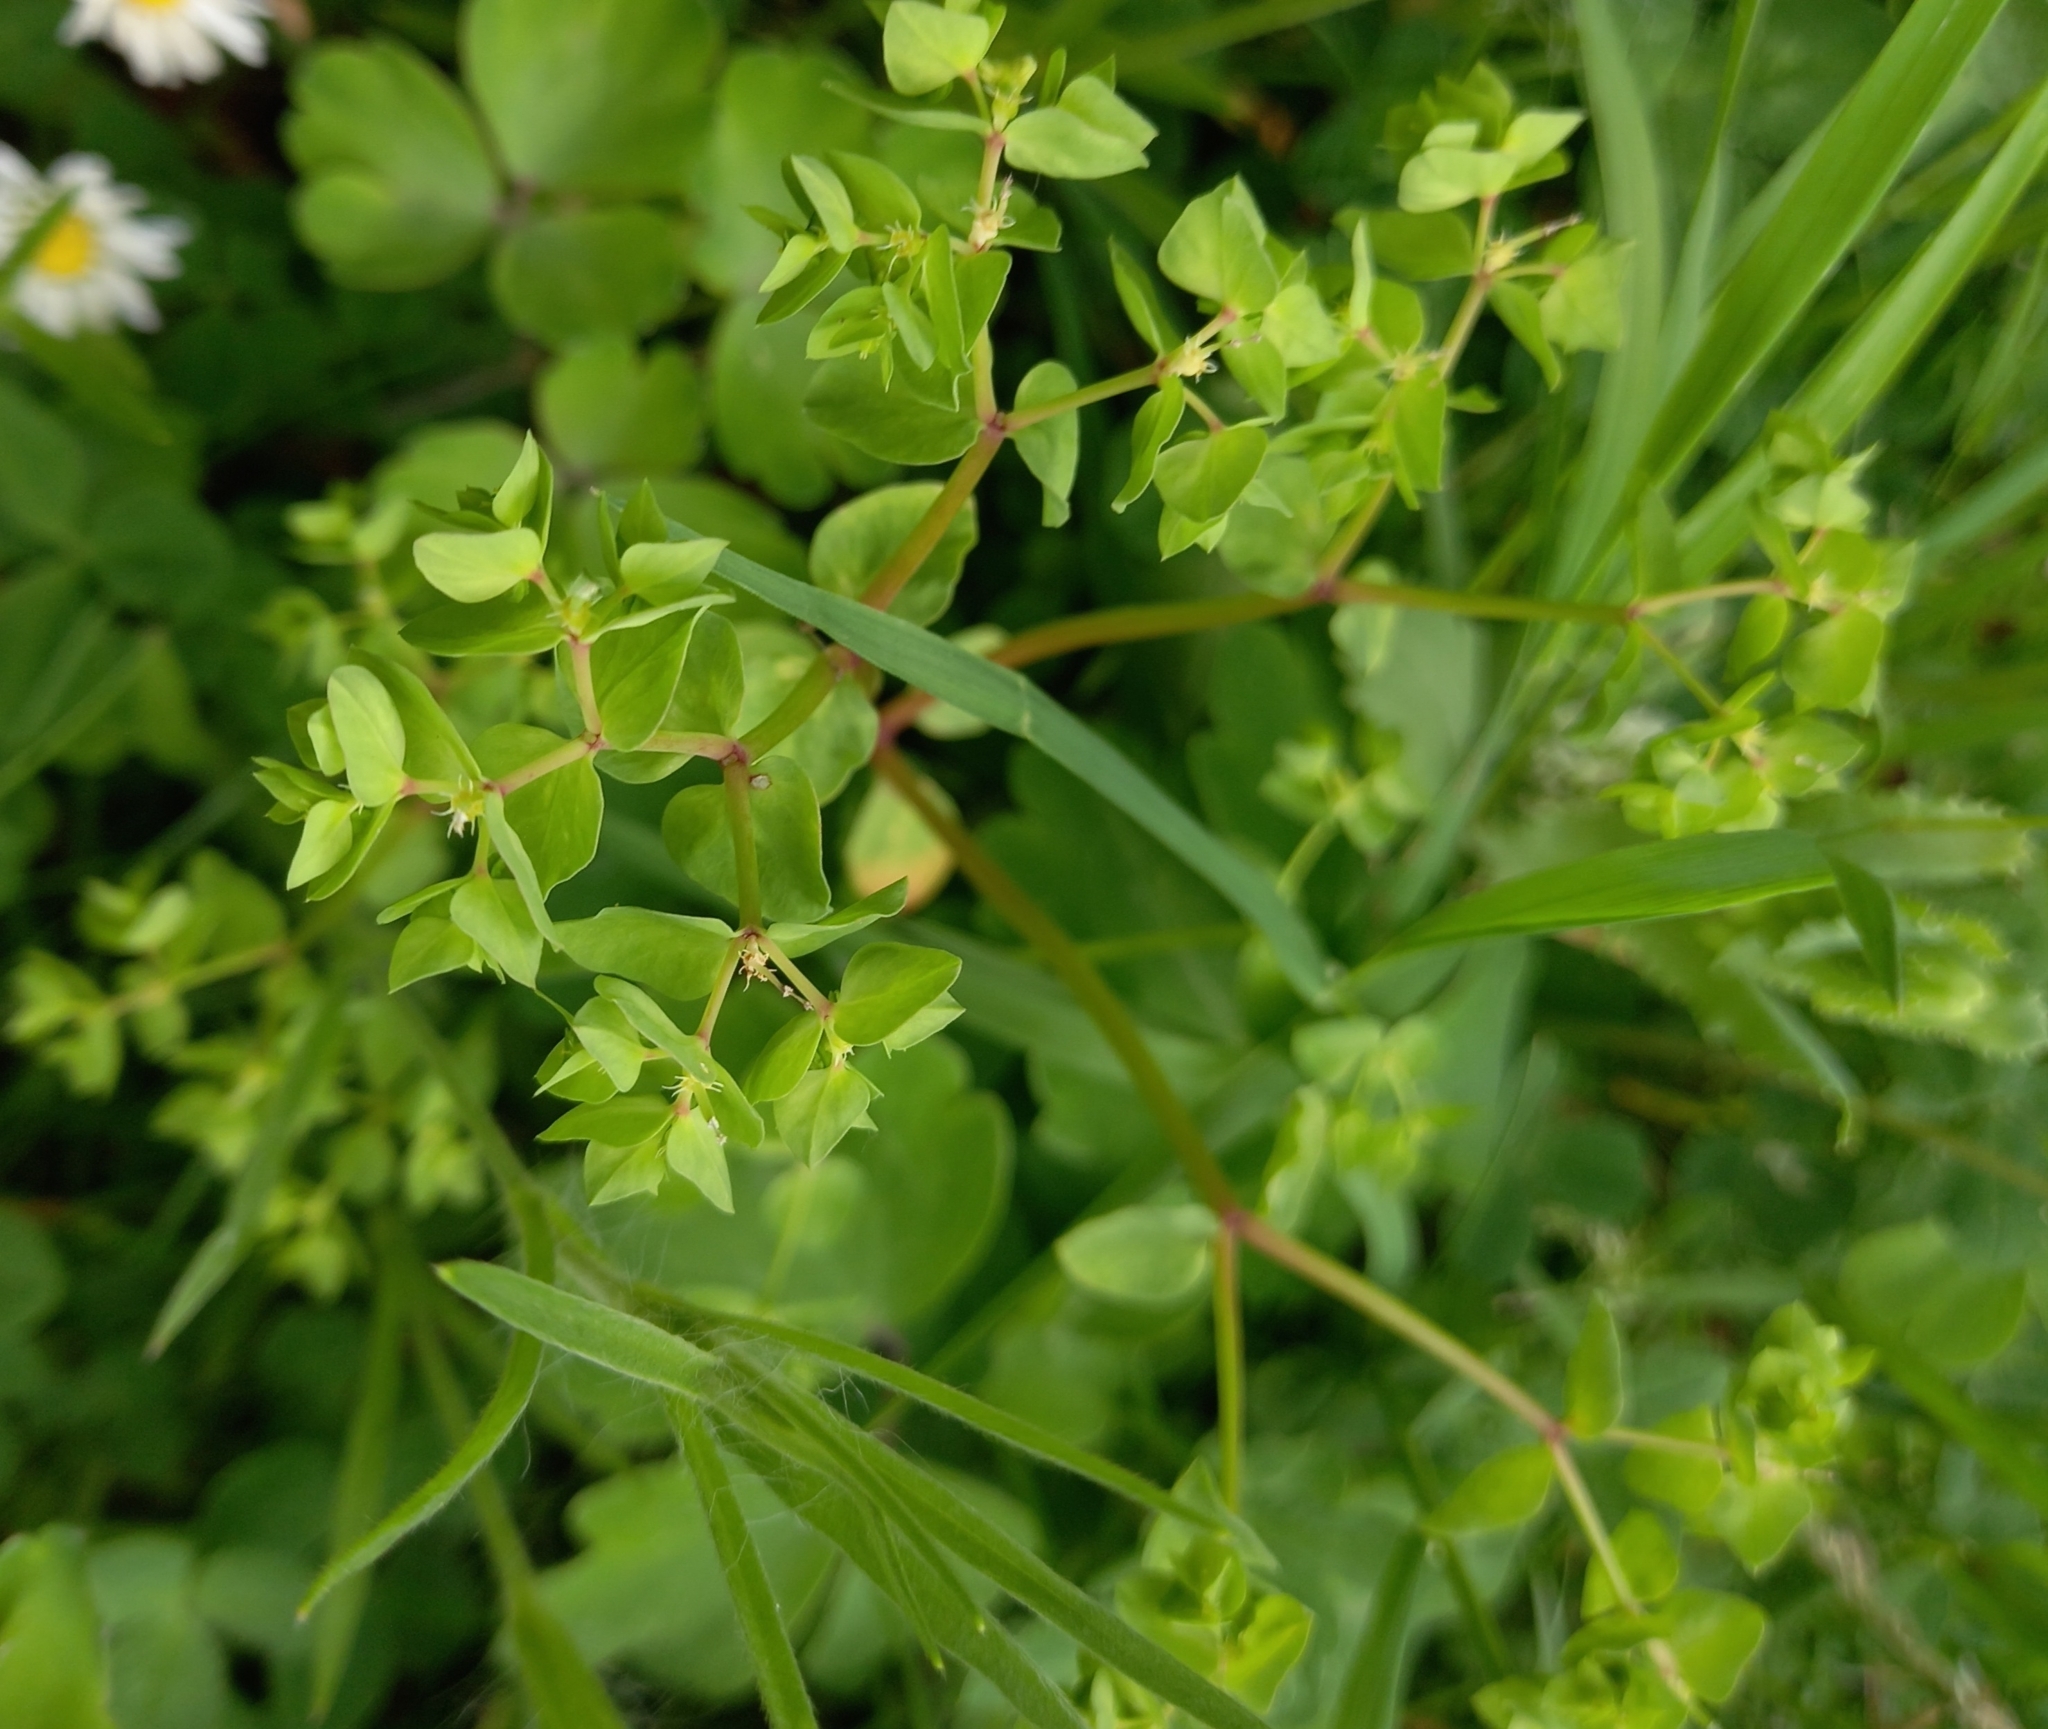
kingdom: Plantae
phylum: Tracheophyta
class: Magnoliopsida
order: Malpighiales
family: Euphorbiaceae
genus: Euphorbia
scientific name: Euphorbia peplus
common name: Petty spurge
